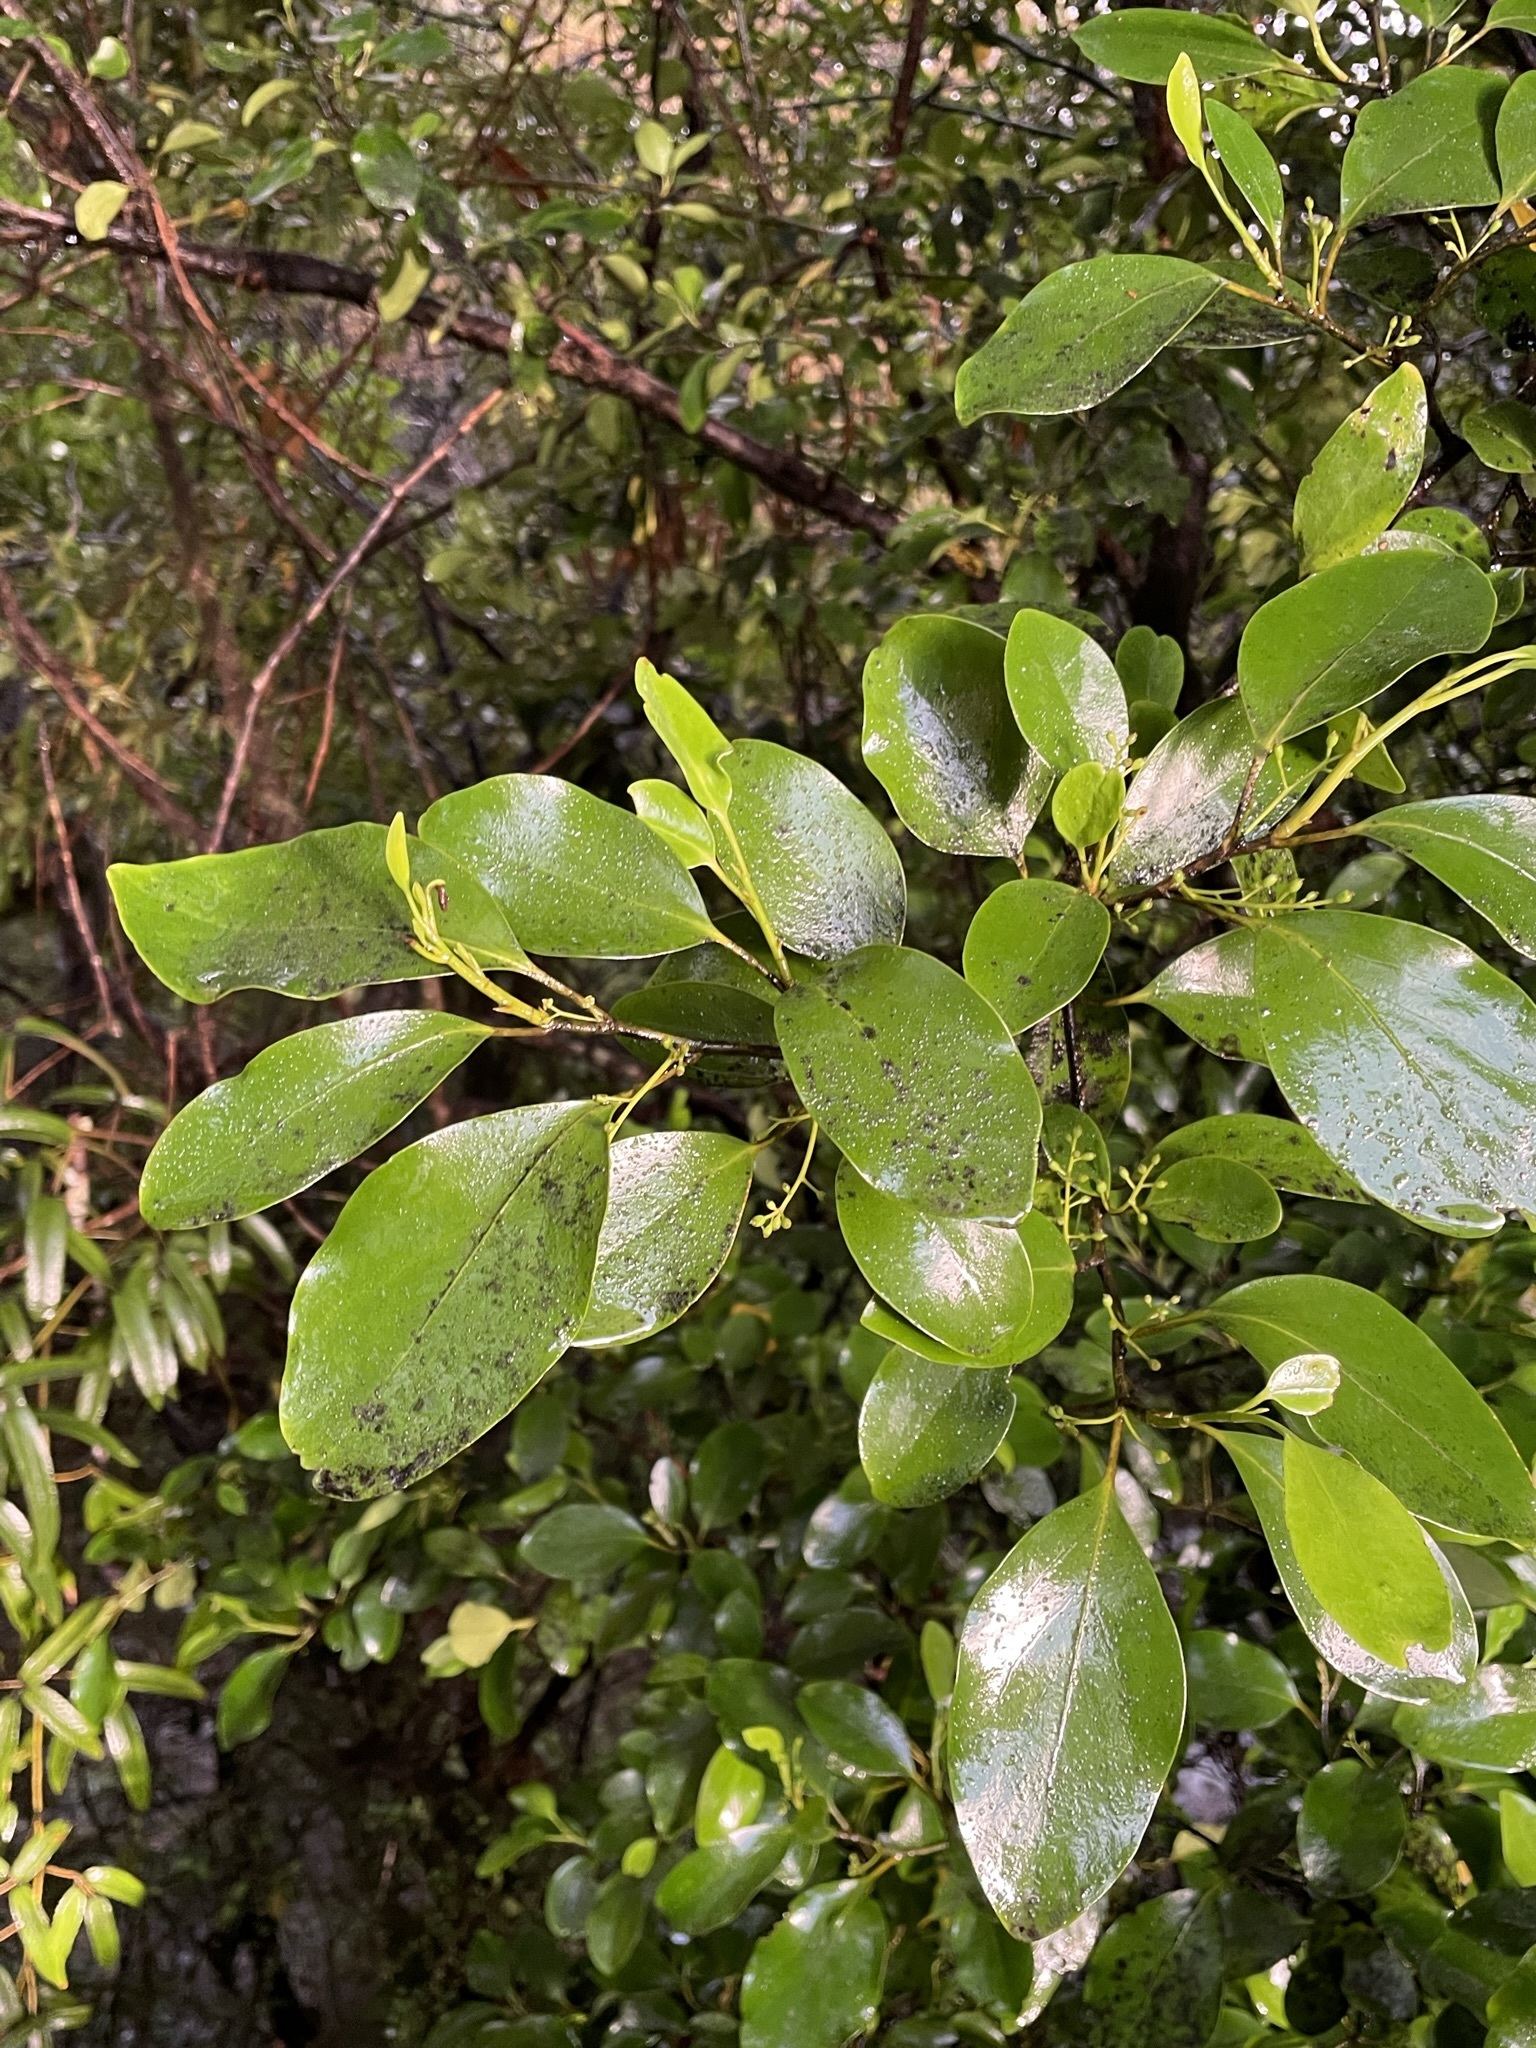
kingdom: Plantae
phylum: Tracheophyta
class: Magnoliopsida
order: Apiales
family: Griseliniaceae
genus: Griselinia
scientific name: Griselinia littoralis
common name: New zealand broadleaf
